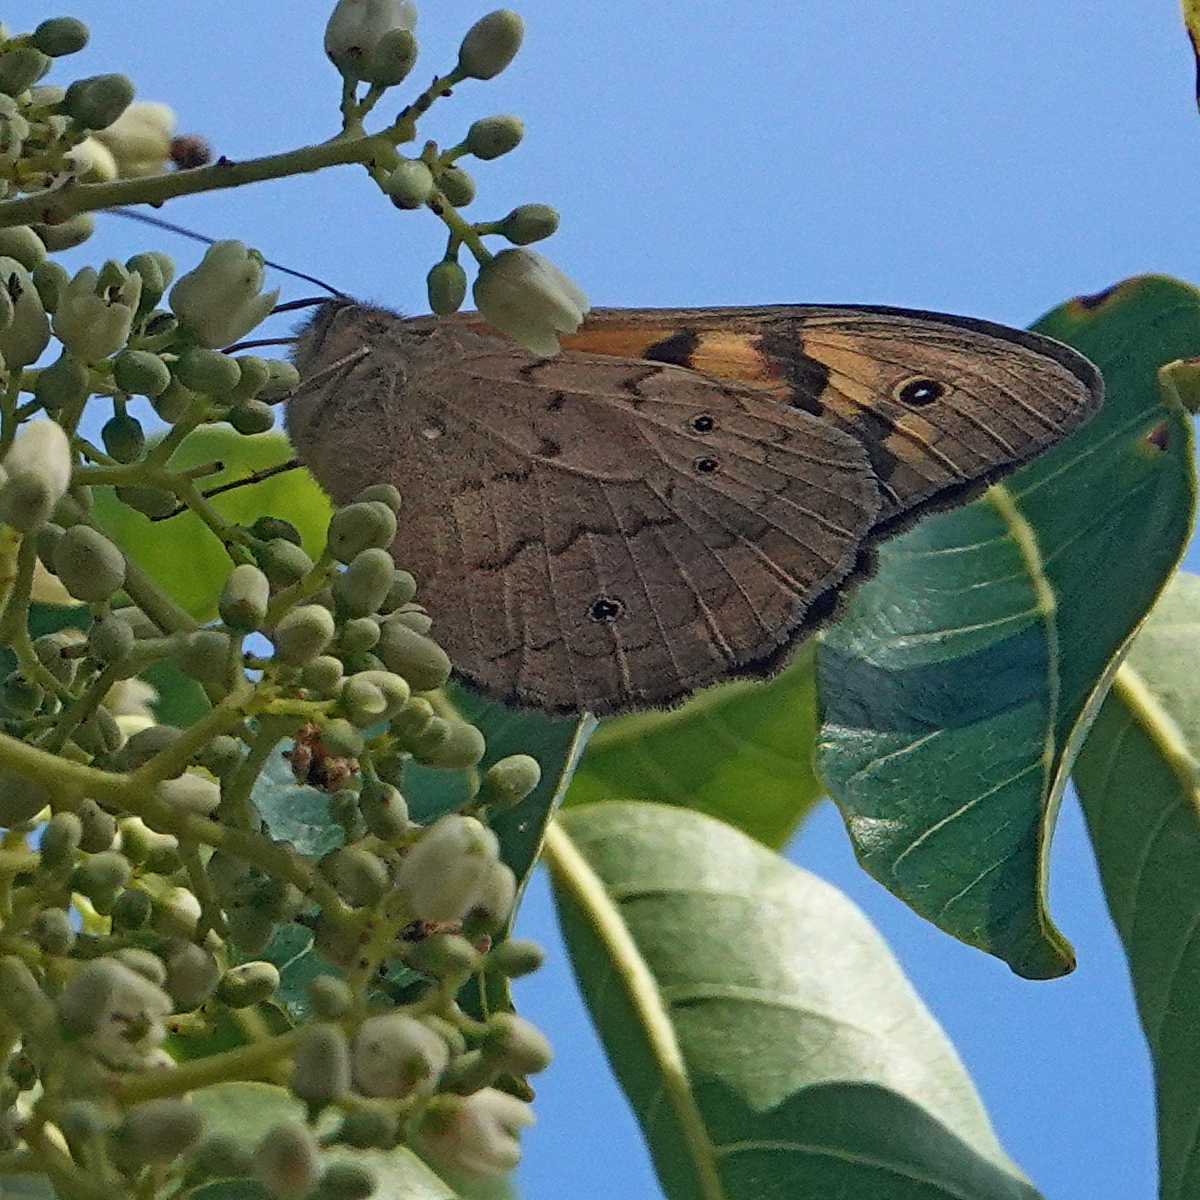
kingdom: Animalia
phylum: Arthropoda
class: Insecta
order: Lepidoptera
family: Nymphalidae
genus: Heteronympha
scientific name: Heteronympha merope
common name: Common brown
